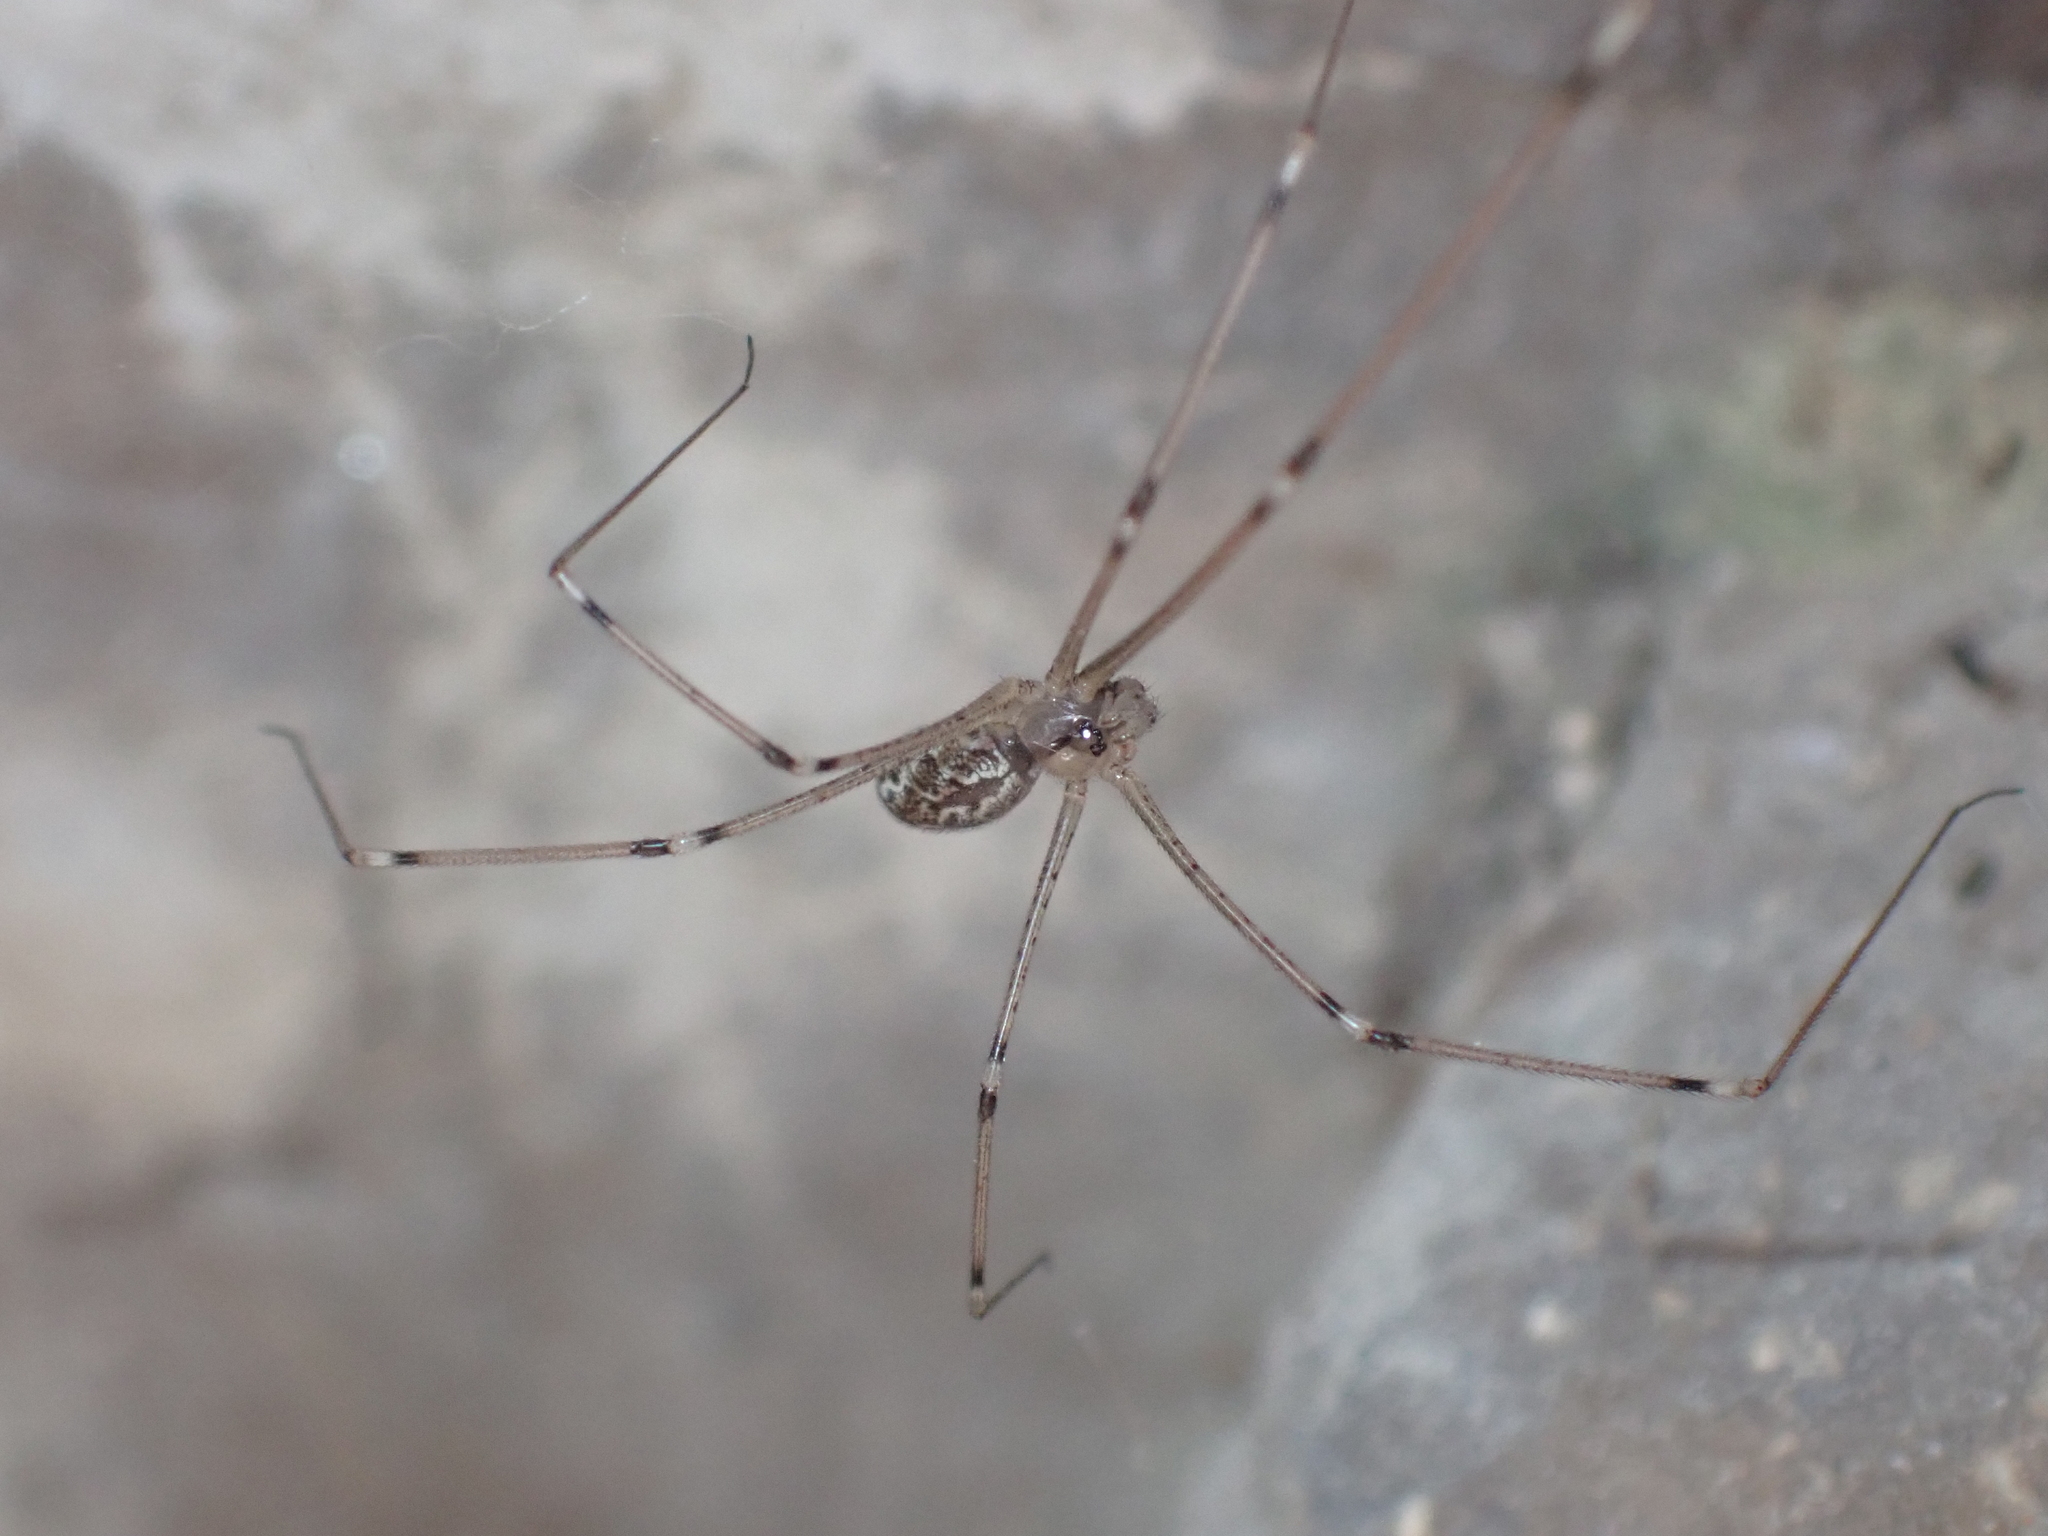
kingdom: Animalia
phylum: Arthropoda
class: Arachnida
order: Araneae
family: Pholcidae
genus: Holocnemus
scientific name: Holocnemus pluchei
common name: Marbled cellar spider
